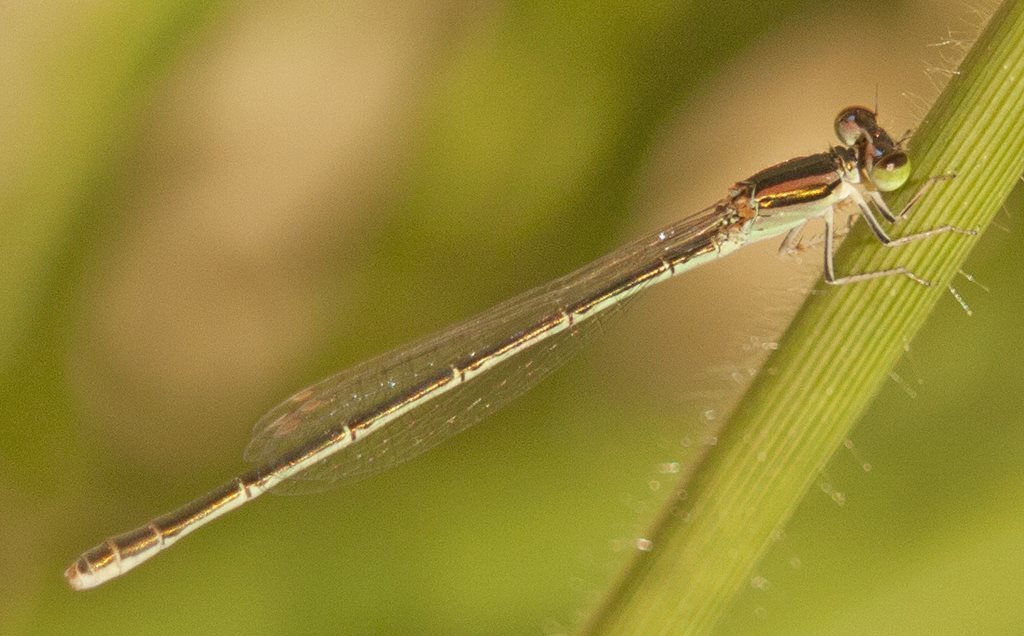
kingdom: Animalia
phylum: Arthropoda
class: Insecta
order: Odonata
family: Coenagrionidae
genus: Ischnura
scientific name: Ischnura aurora
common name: Gossamer damselfly
